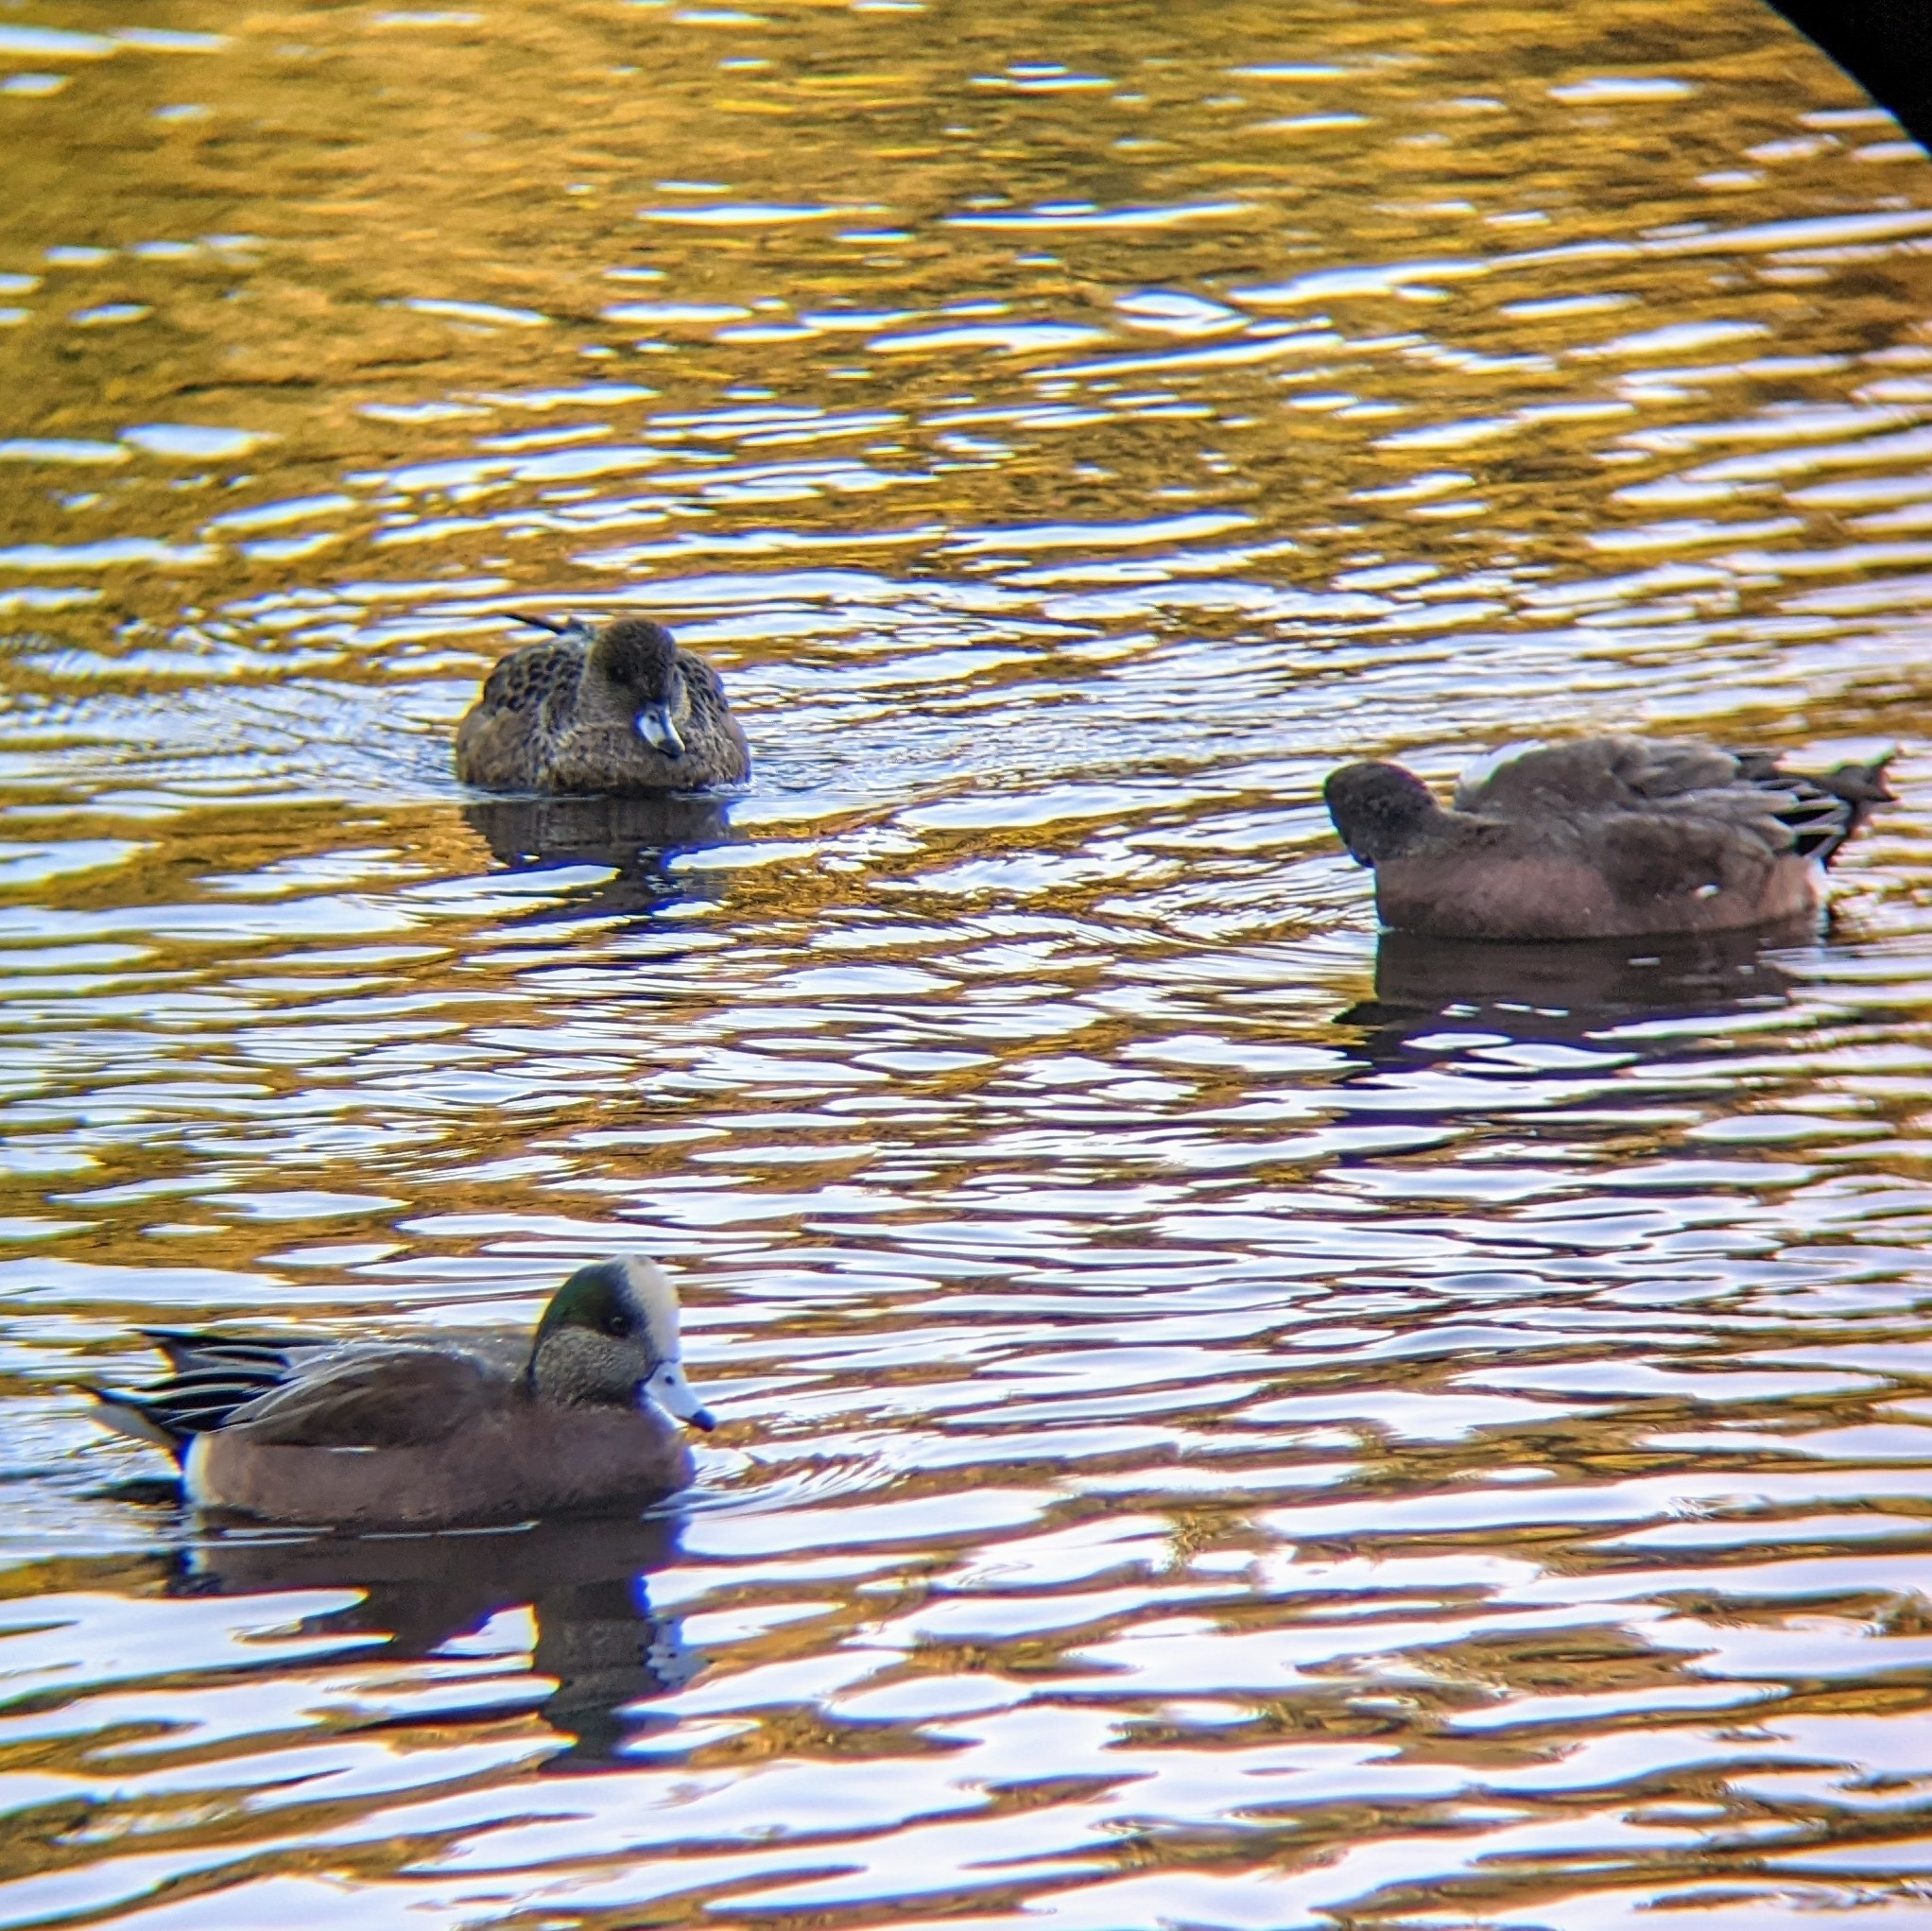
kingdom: Animalia
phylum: Chordata
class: Aves
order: Anseriformes
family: Anatidae
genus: Mareca
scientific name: Mareca americana
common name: American wigeon
